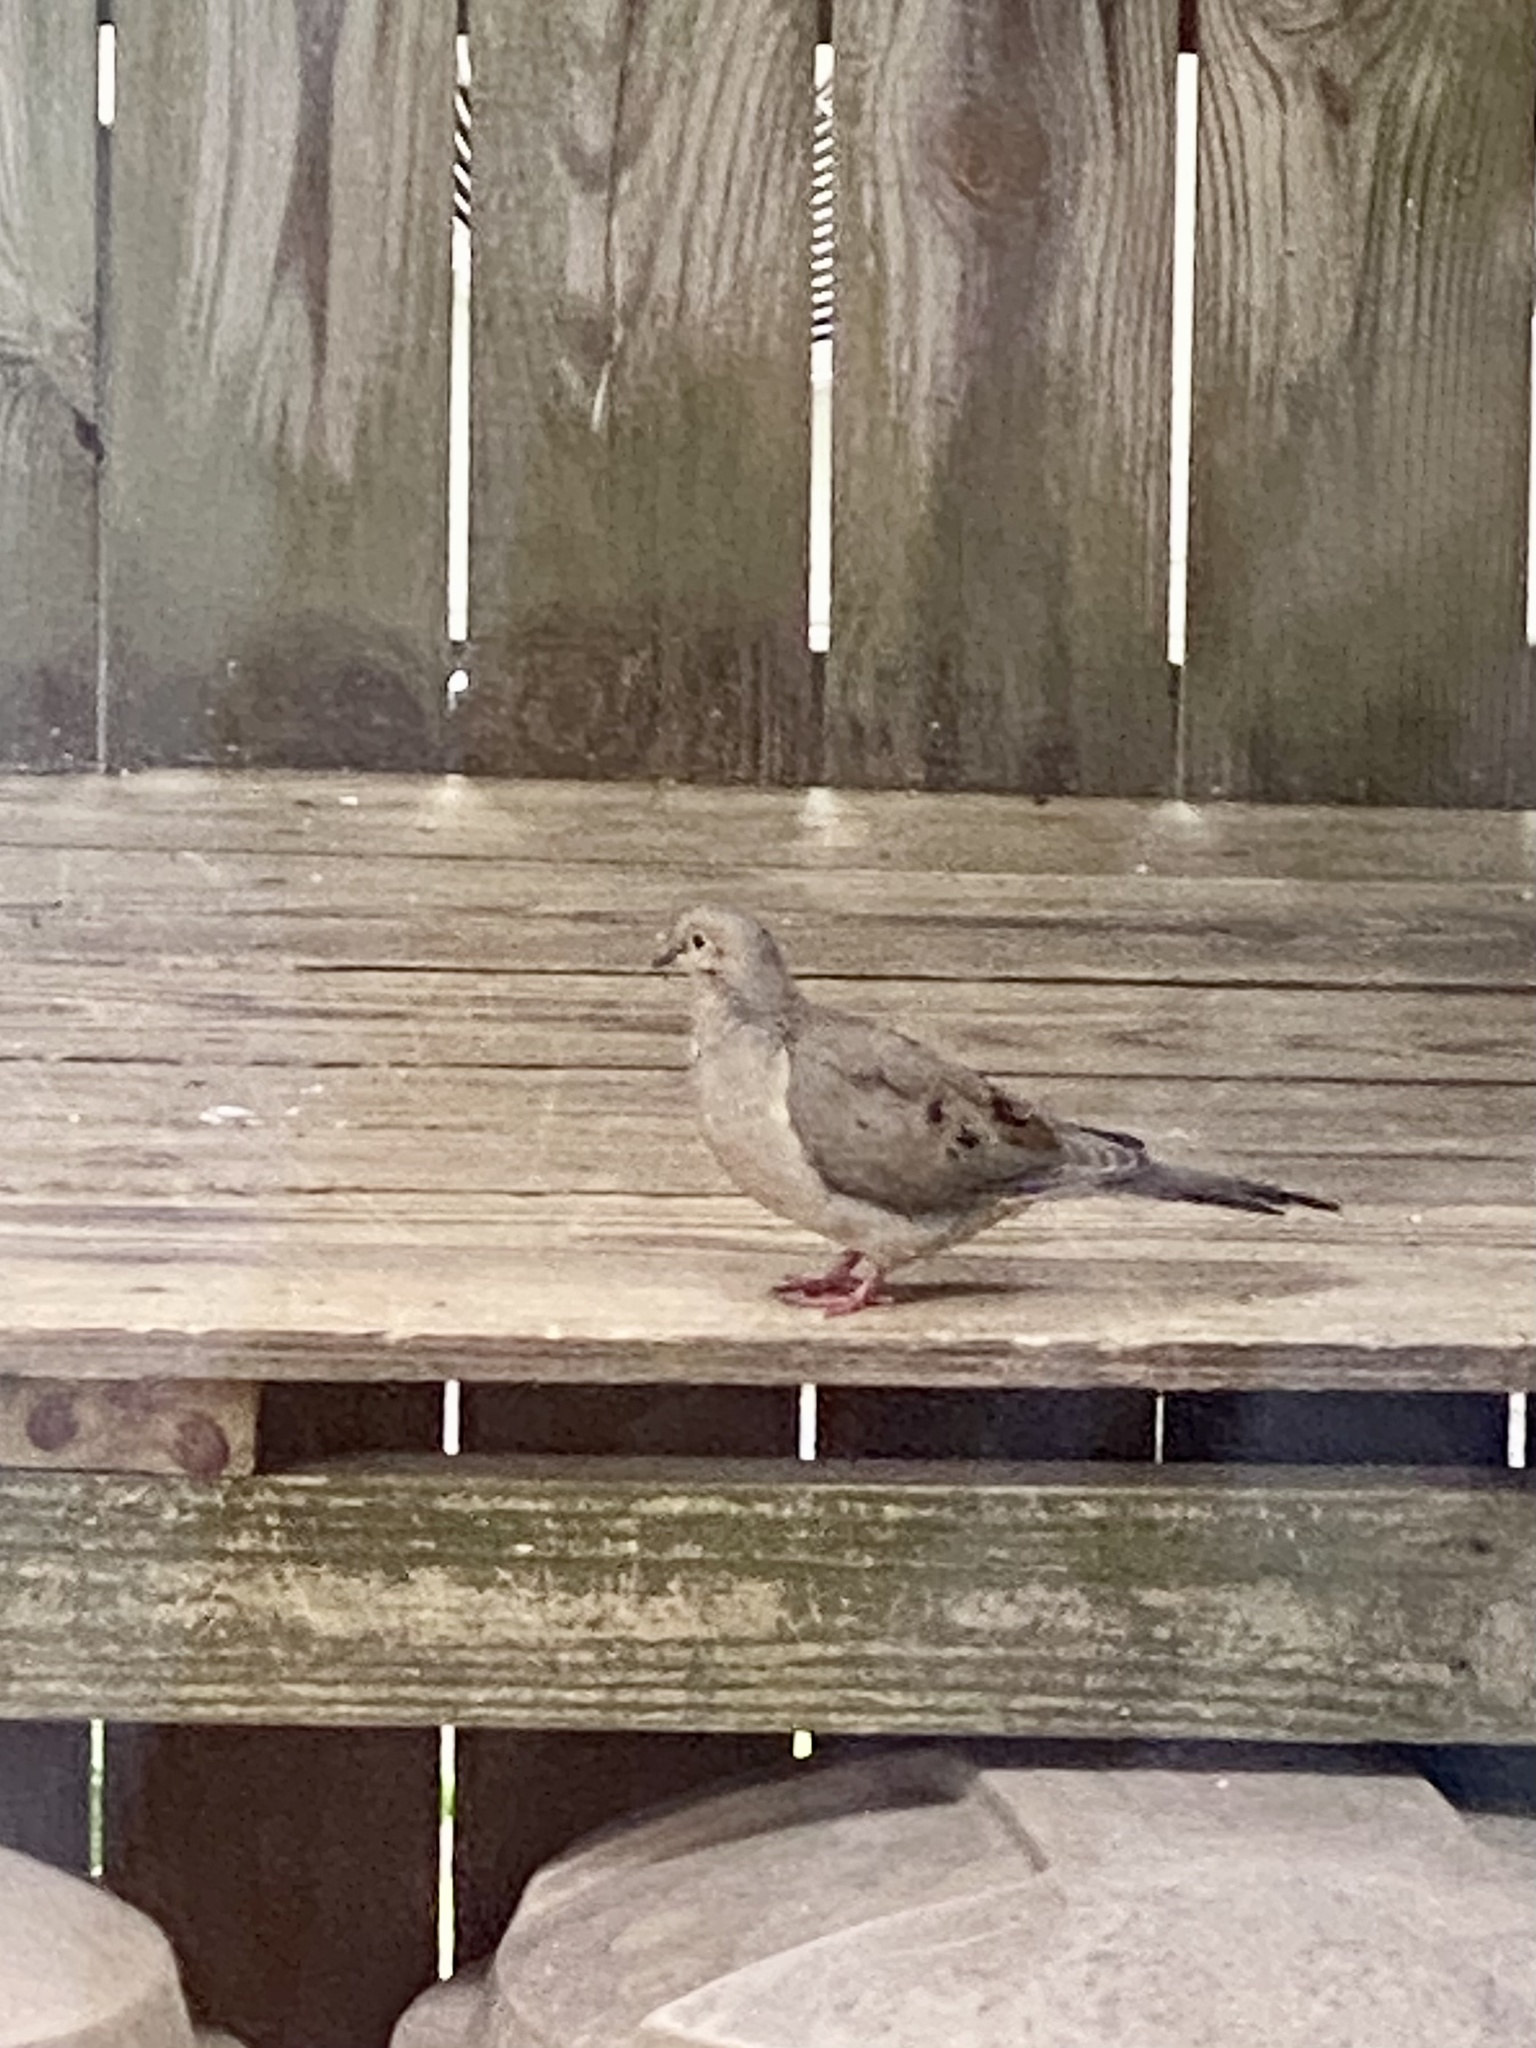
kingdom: Animalia
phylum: Chordata
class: Aves
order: Columbiformes
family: Columbidae
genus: Zenaida
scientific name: Zenaida macroura
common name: Mourning dove
